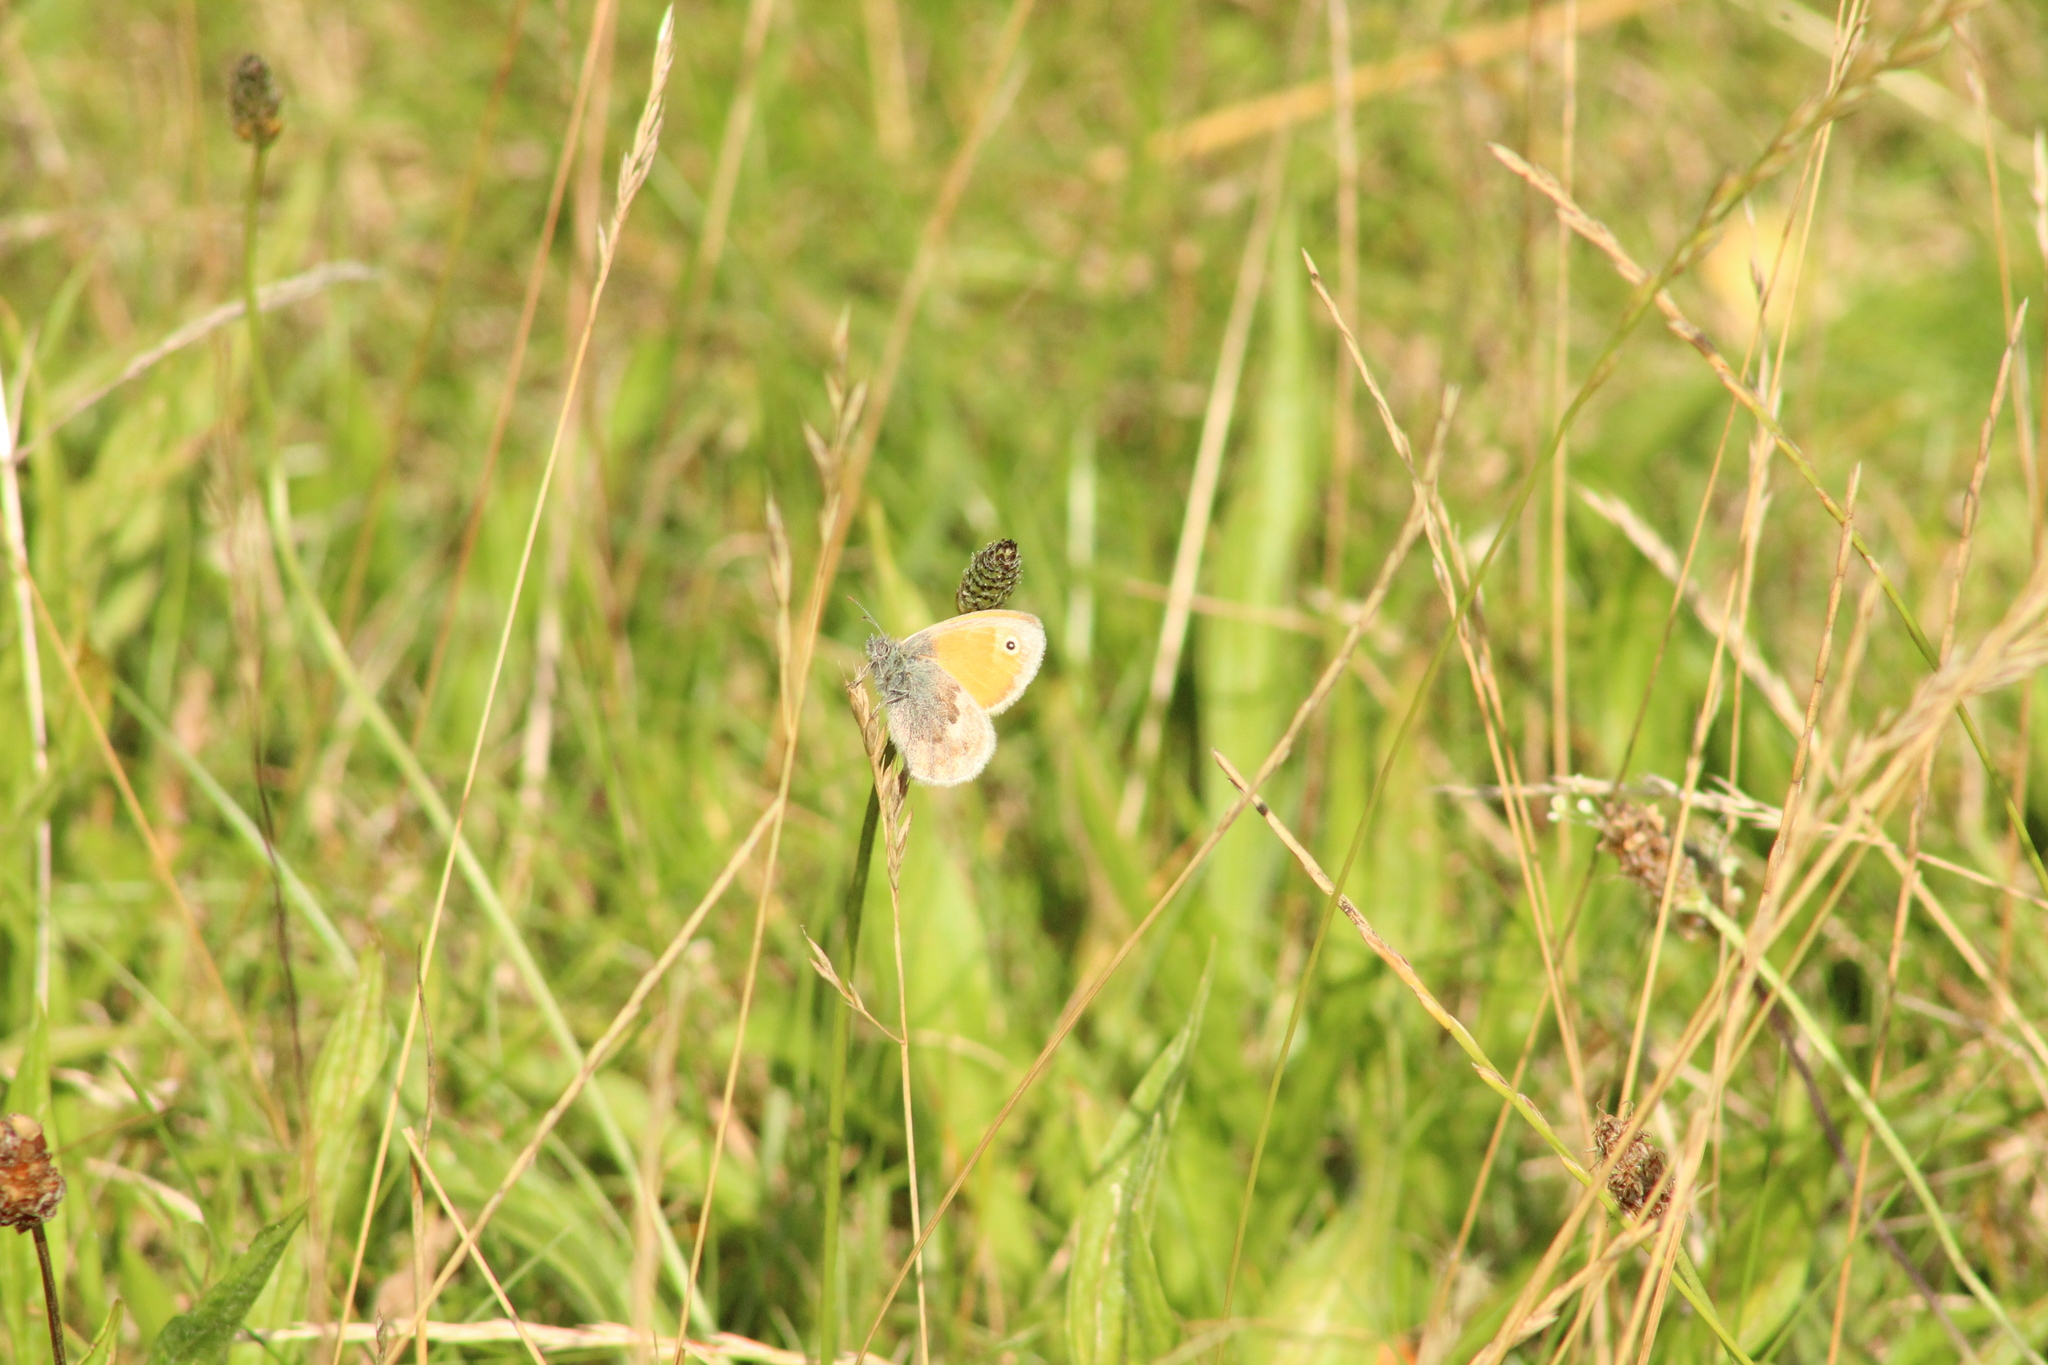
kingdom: Animalia
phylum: Arthropoda
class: Insecta
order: Lepidoptera
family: Nymphalidae
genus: Coenonympha
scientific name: Coenonympha pamphilus
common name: Small heath
